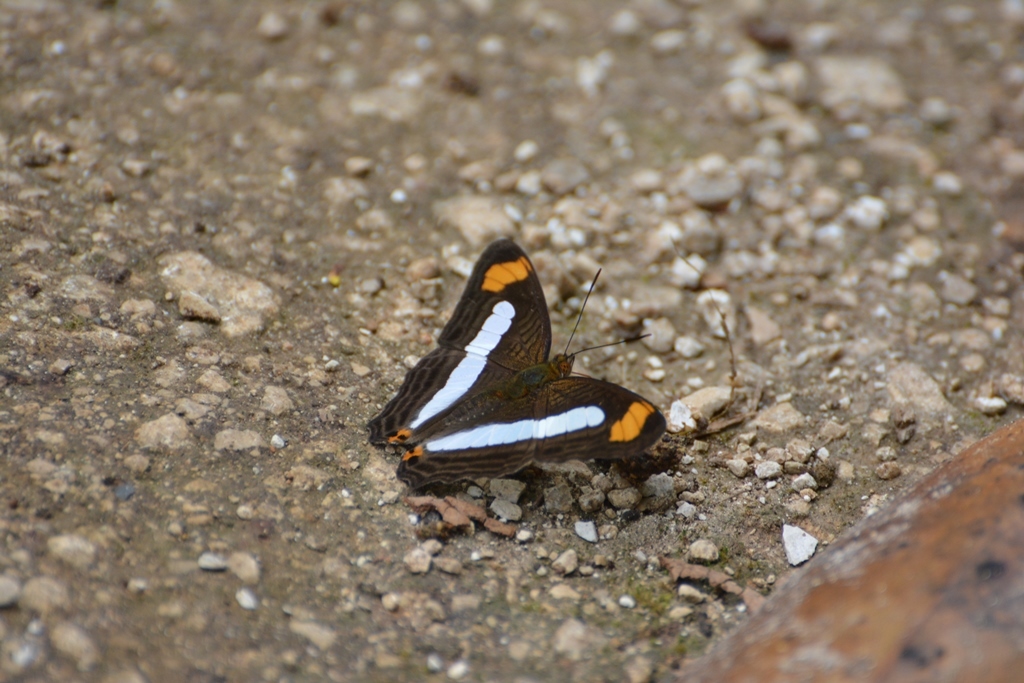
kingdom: Animalia
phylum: Arthropoda
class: Insecta
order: Lepidoptera
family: Nymphalidae
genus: Limenitis
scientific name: Limenitis iphiclus
